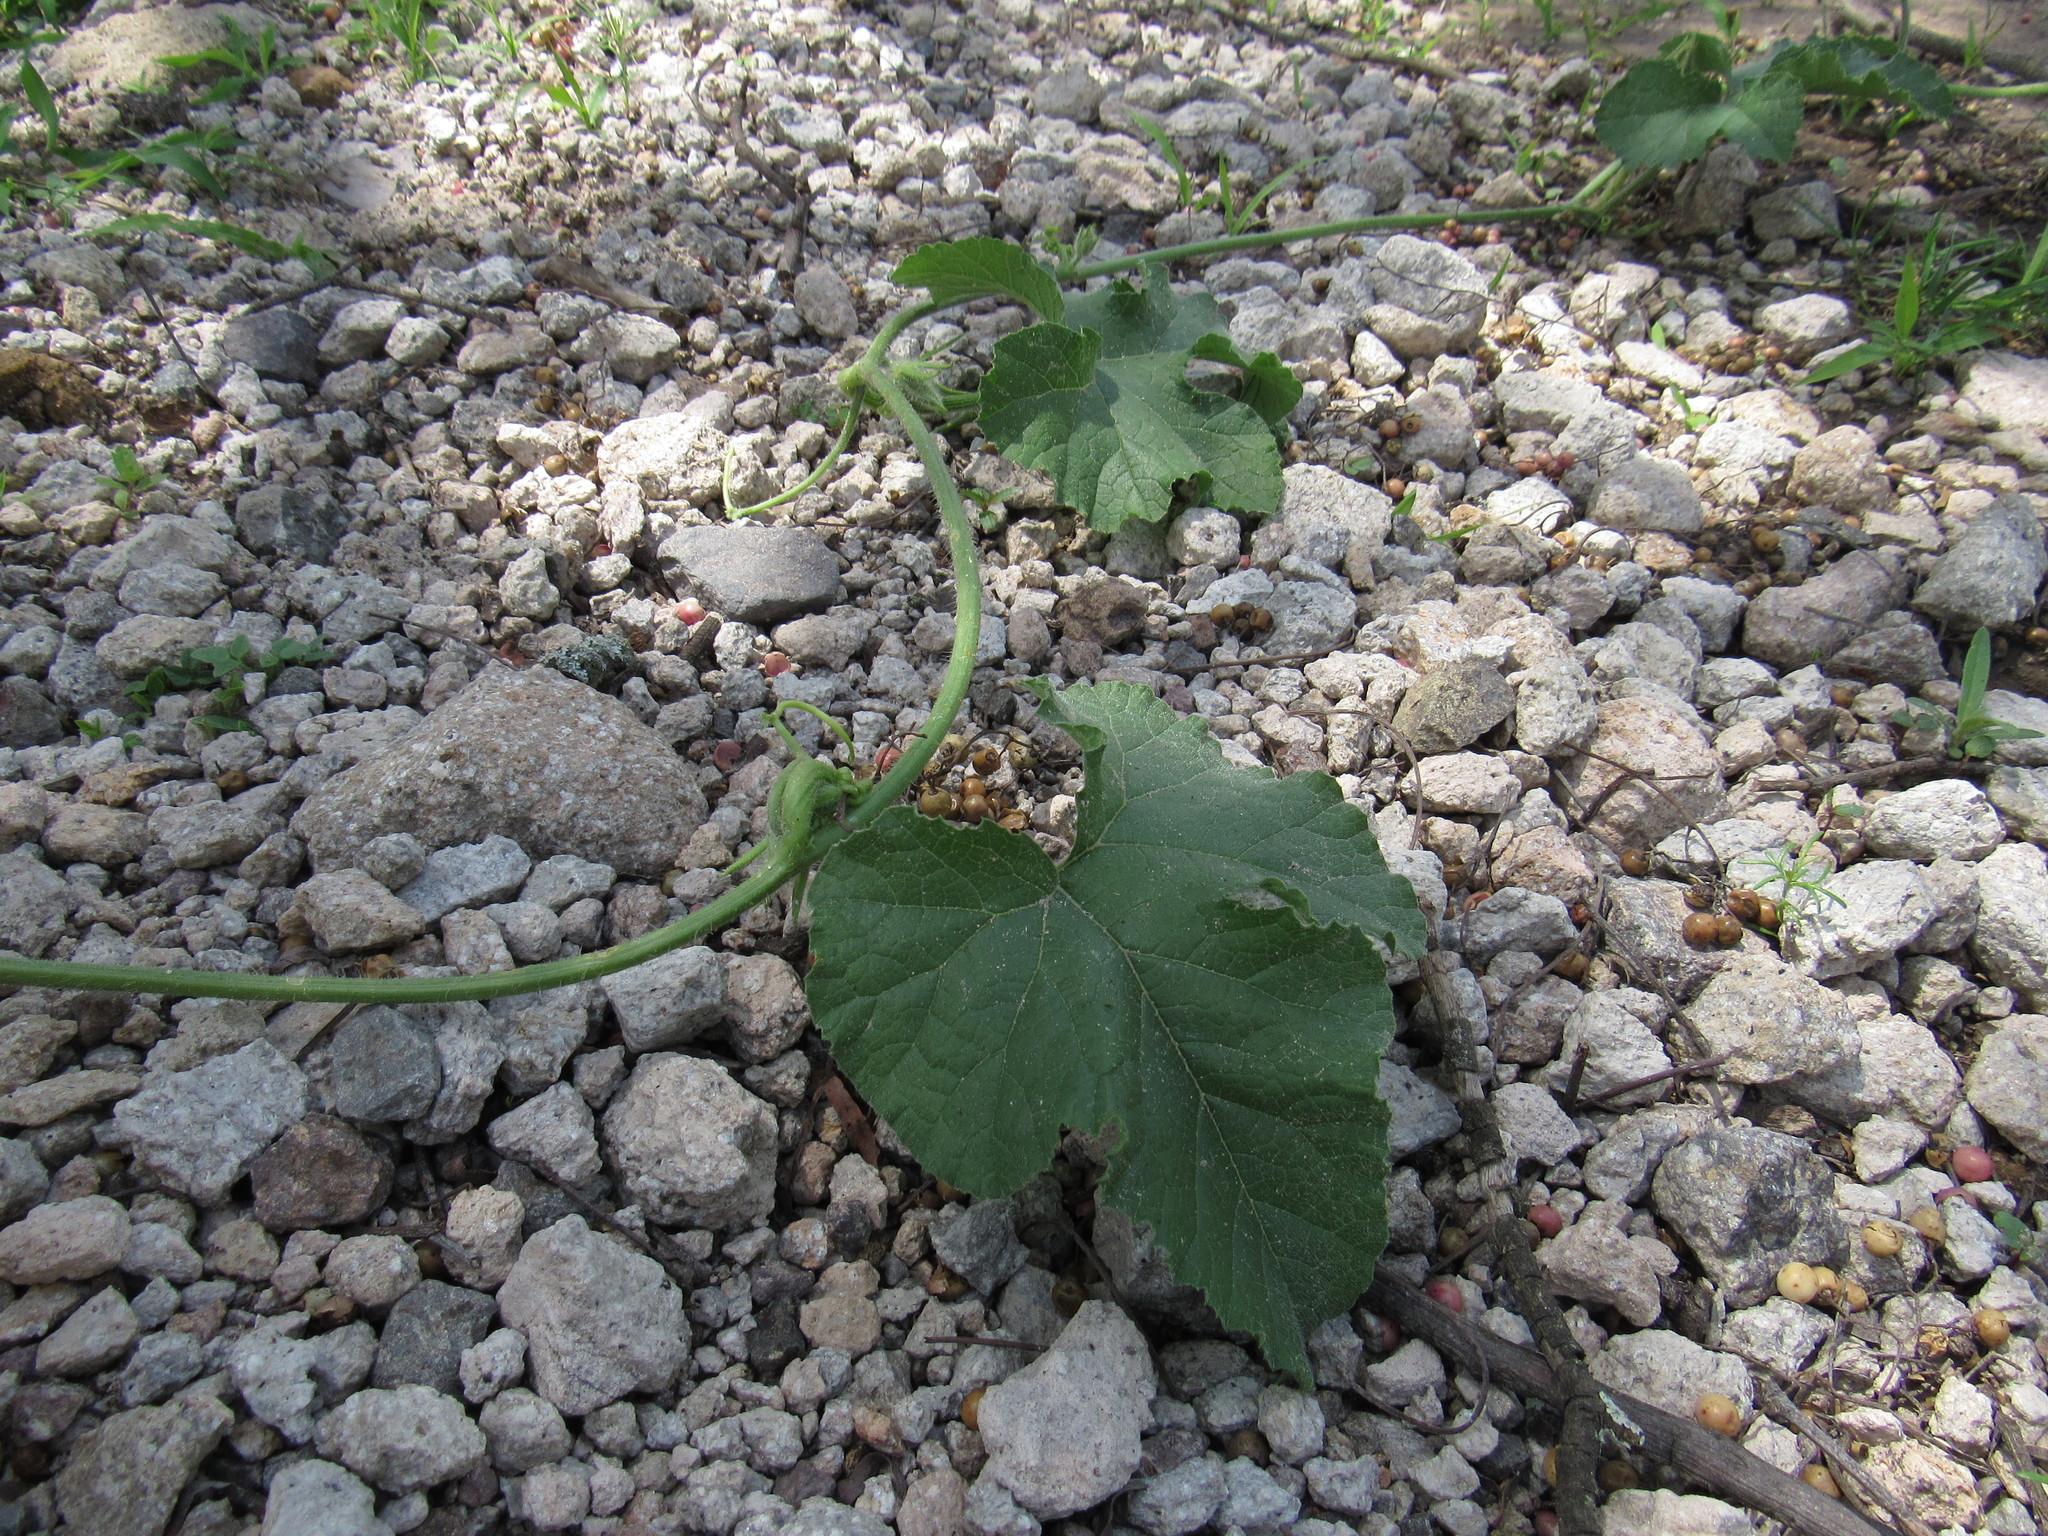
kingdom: Plantae
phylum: Tracheophyta
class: Magnoliopsida
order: Cucurbitales
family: Cucurbitaceae
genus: Cucurbita
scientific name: Cucurbita foetidissima
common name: Buffalo gourd
